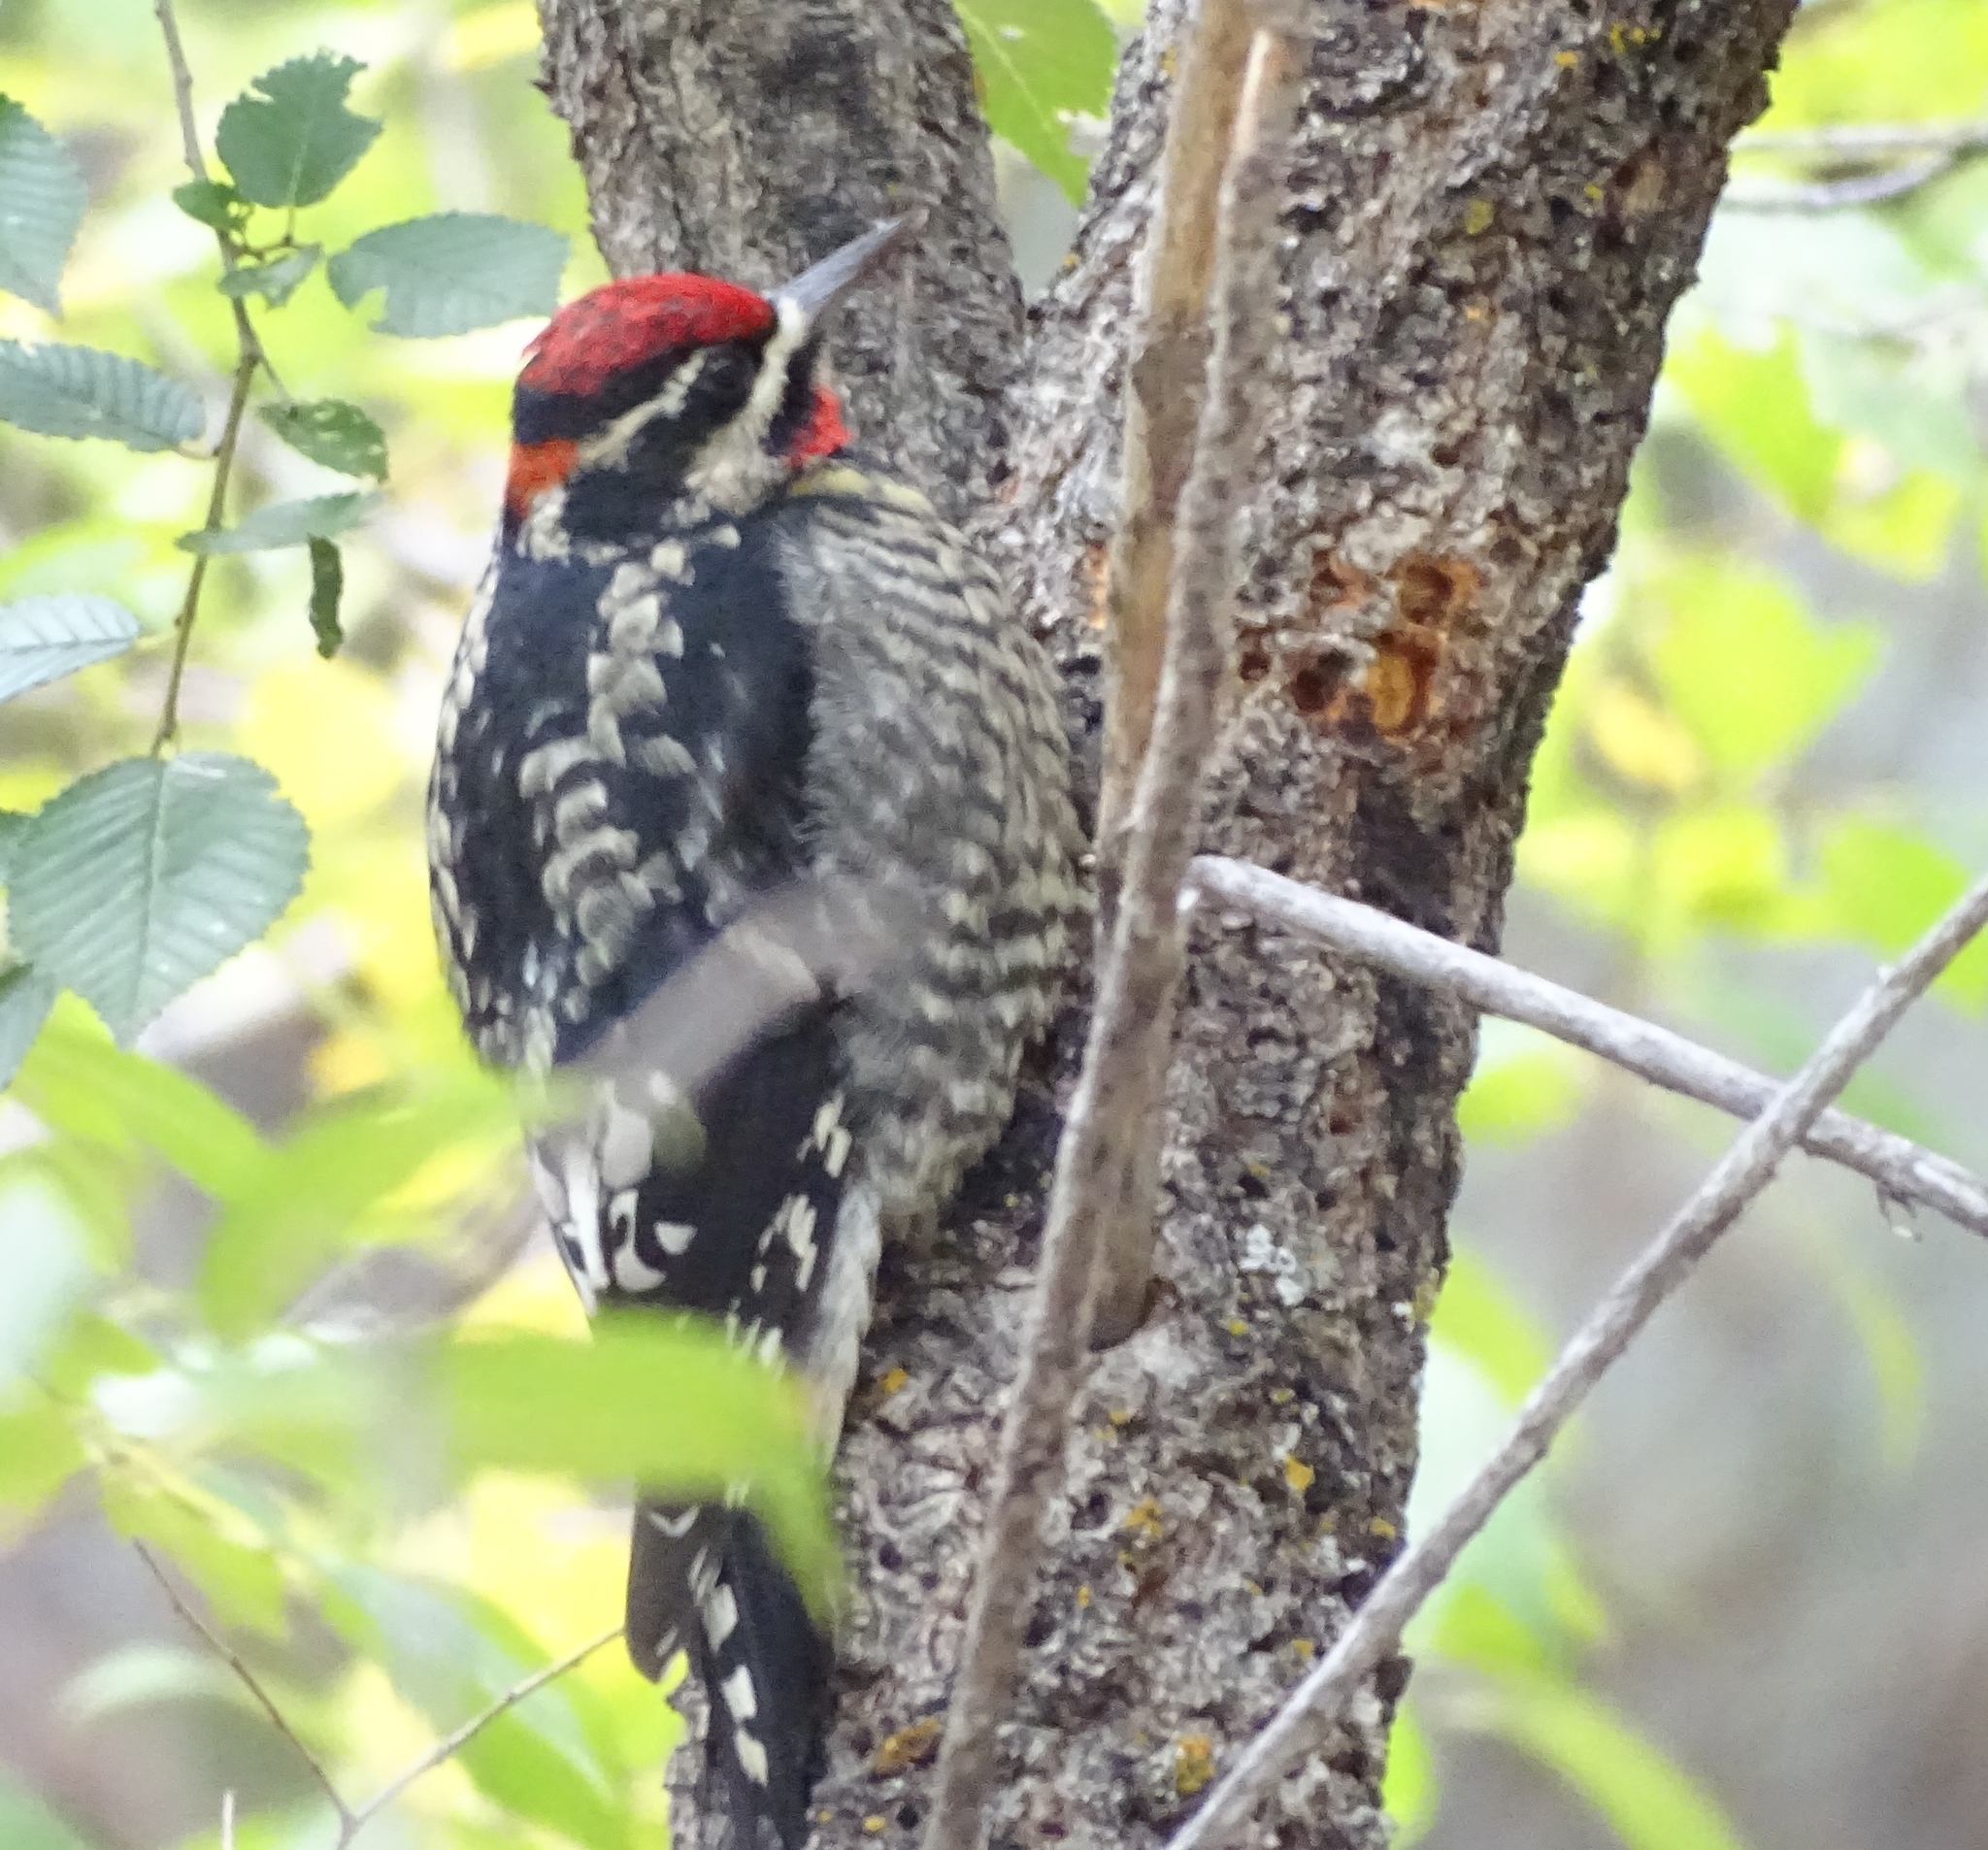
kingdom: Animalia
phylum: Chordata
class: Aves
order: Piciformes
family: Picidae
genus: Sphyrapicus
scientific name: Sphyrapicus nuchalis
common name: Red-naped sapsucker
